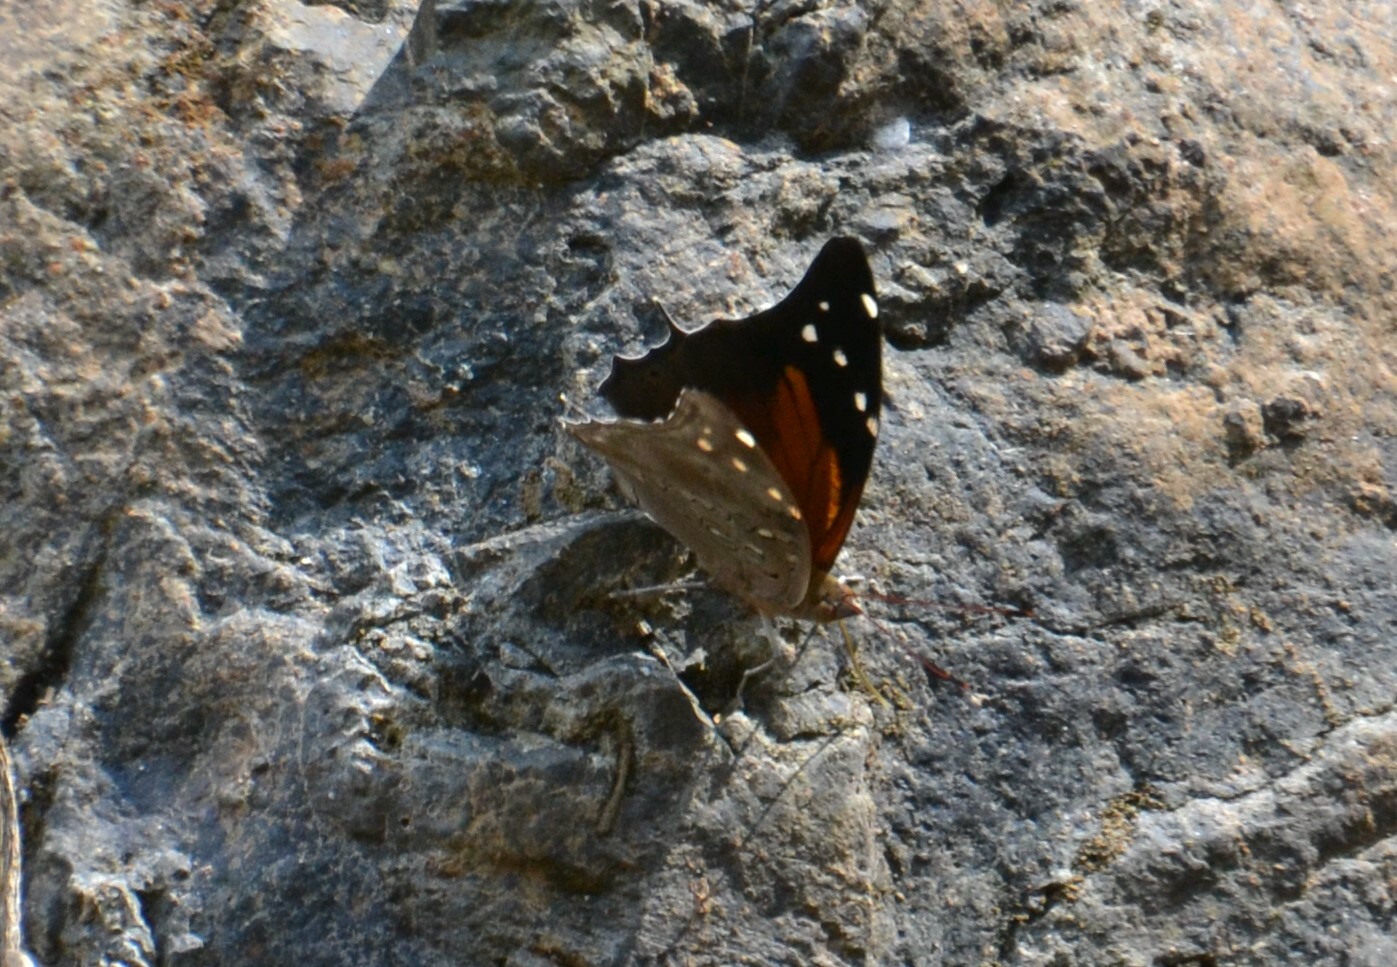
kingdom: Animalia
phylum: Arthropoda
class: Insecta
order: Lepidoptera
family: Nymphalidae
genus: Coea
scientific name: Coea acheronta
